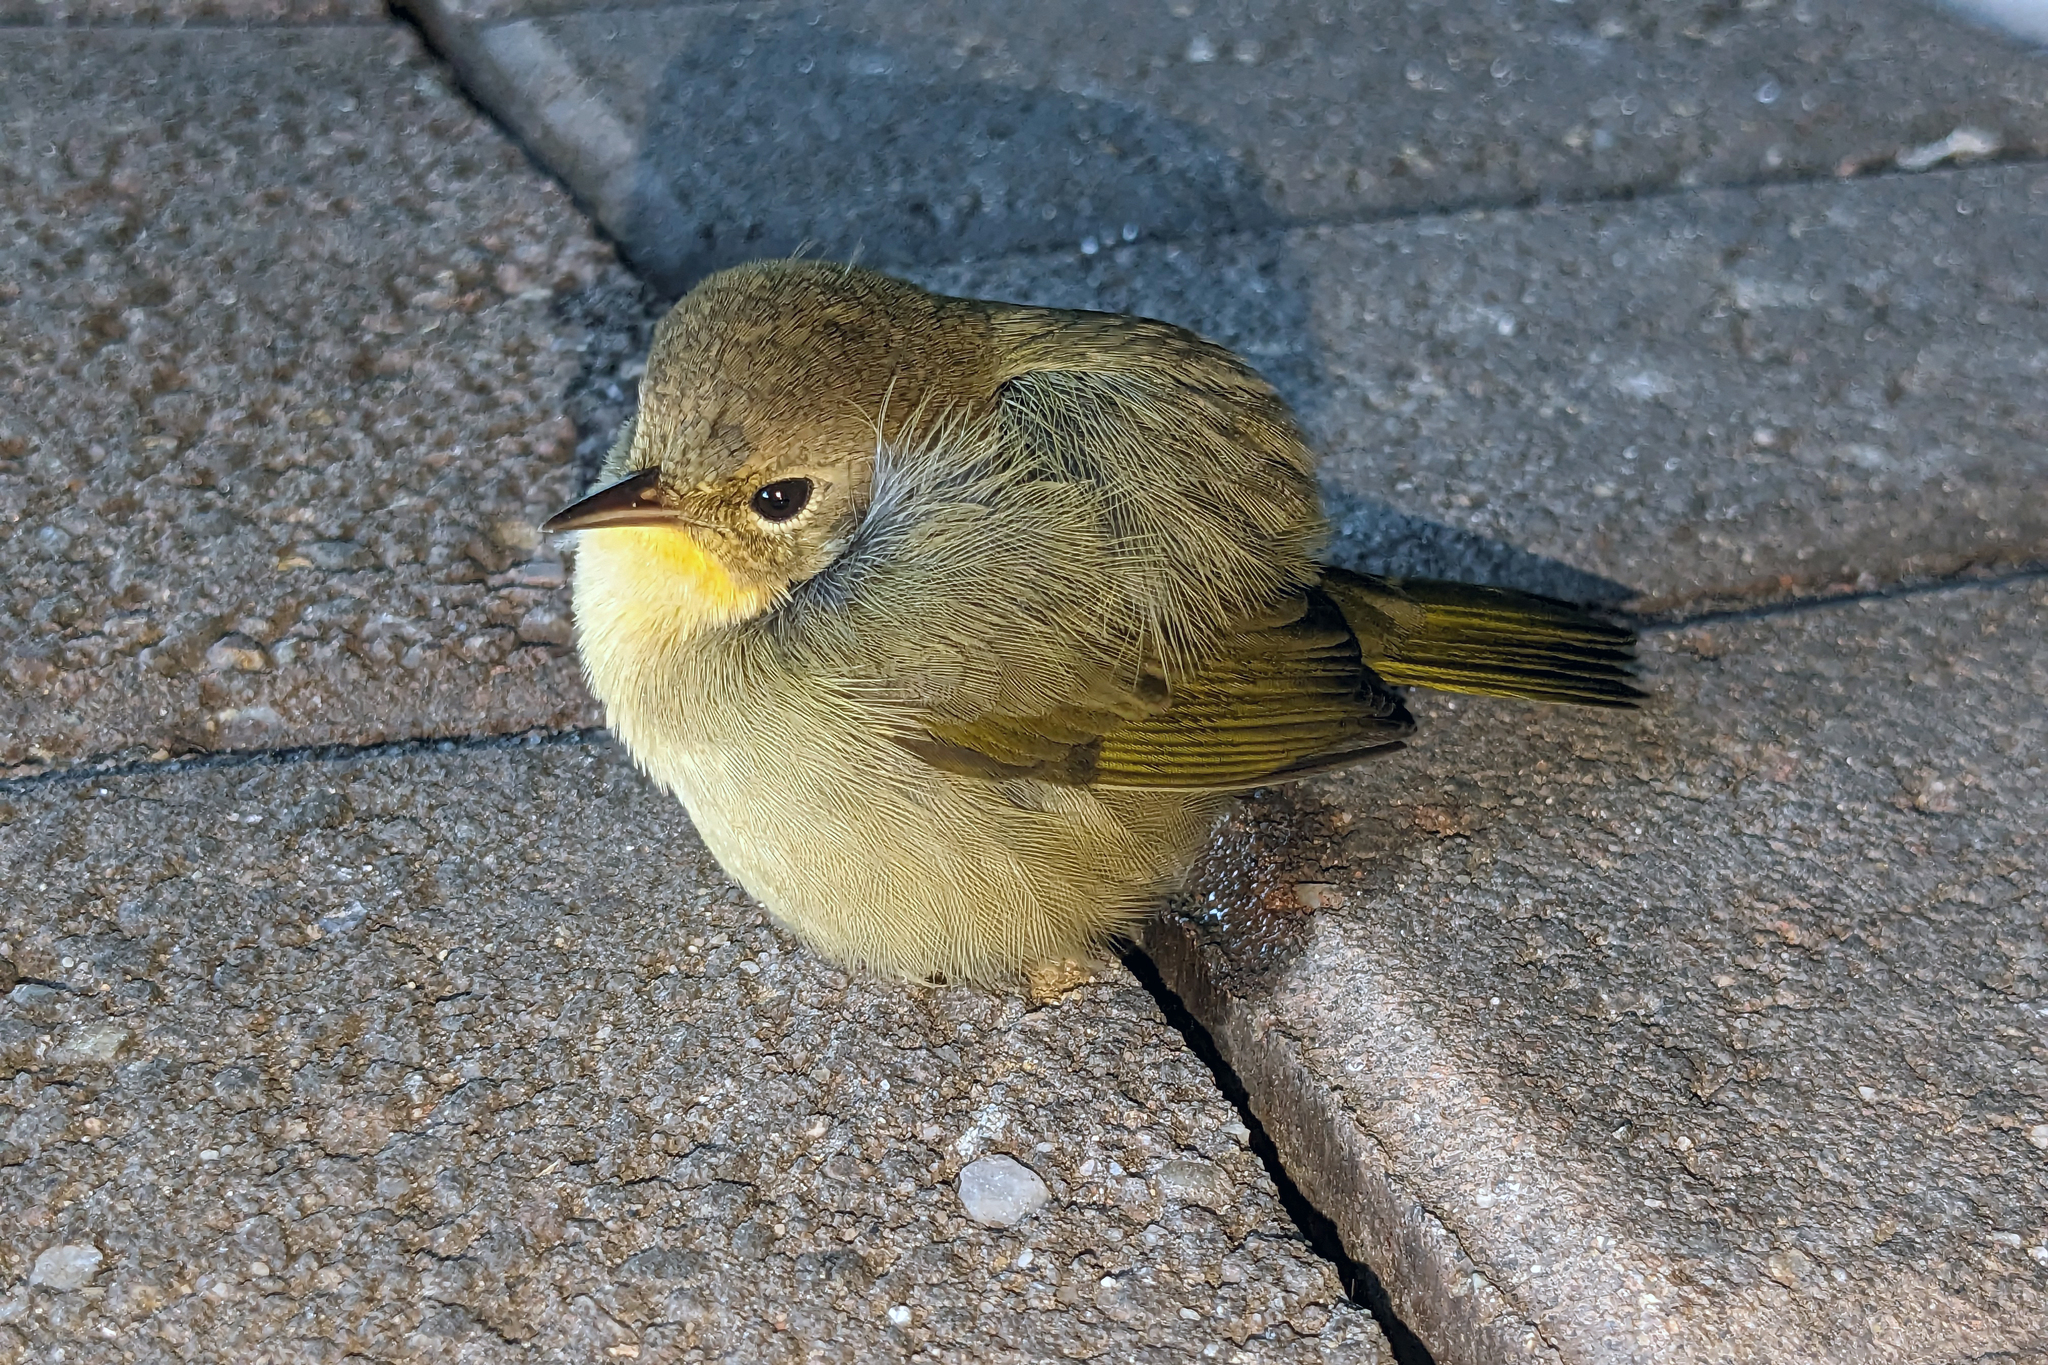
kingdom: Animalia
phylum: Chordata
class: Aves
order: Passeriformes
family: Parulidae
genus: Geothlypis
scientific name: Geothlypis trichas
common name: Common yellowthroat
